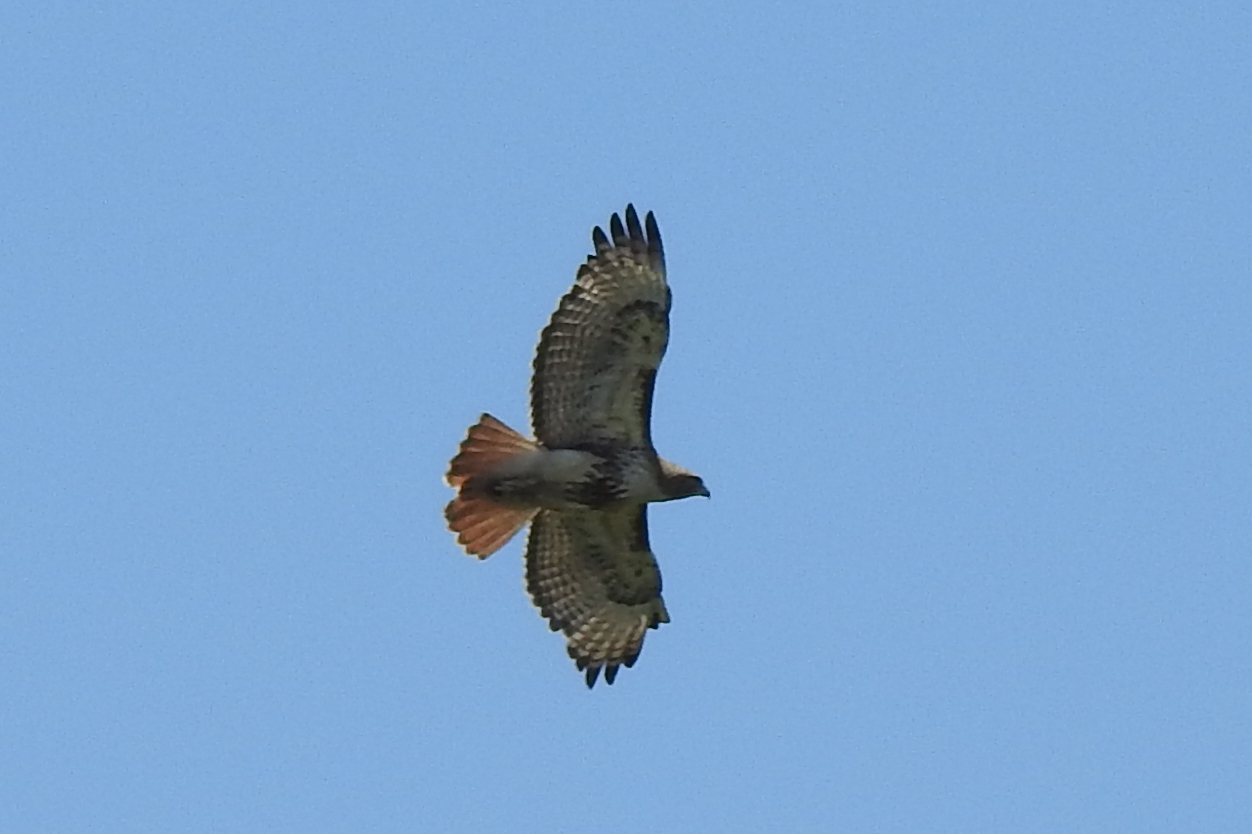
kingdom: Animalia
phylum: Chordata
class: Aves
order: Accipitriformes
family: Accipitridae
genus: Buteo
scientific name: Buteo jamaicensis
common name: Red-tailed hawk
